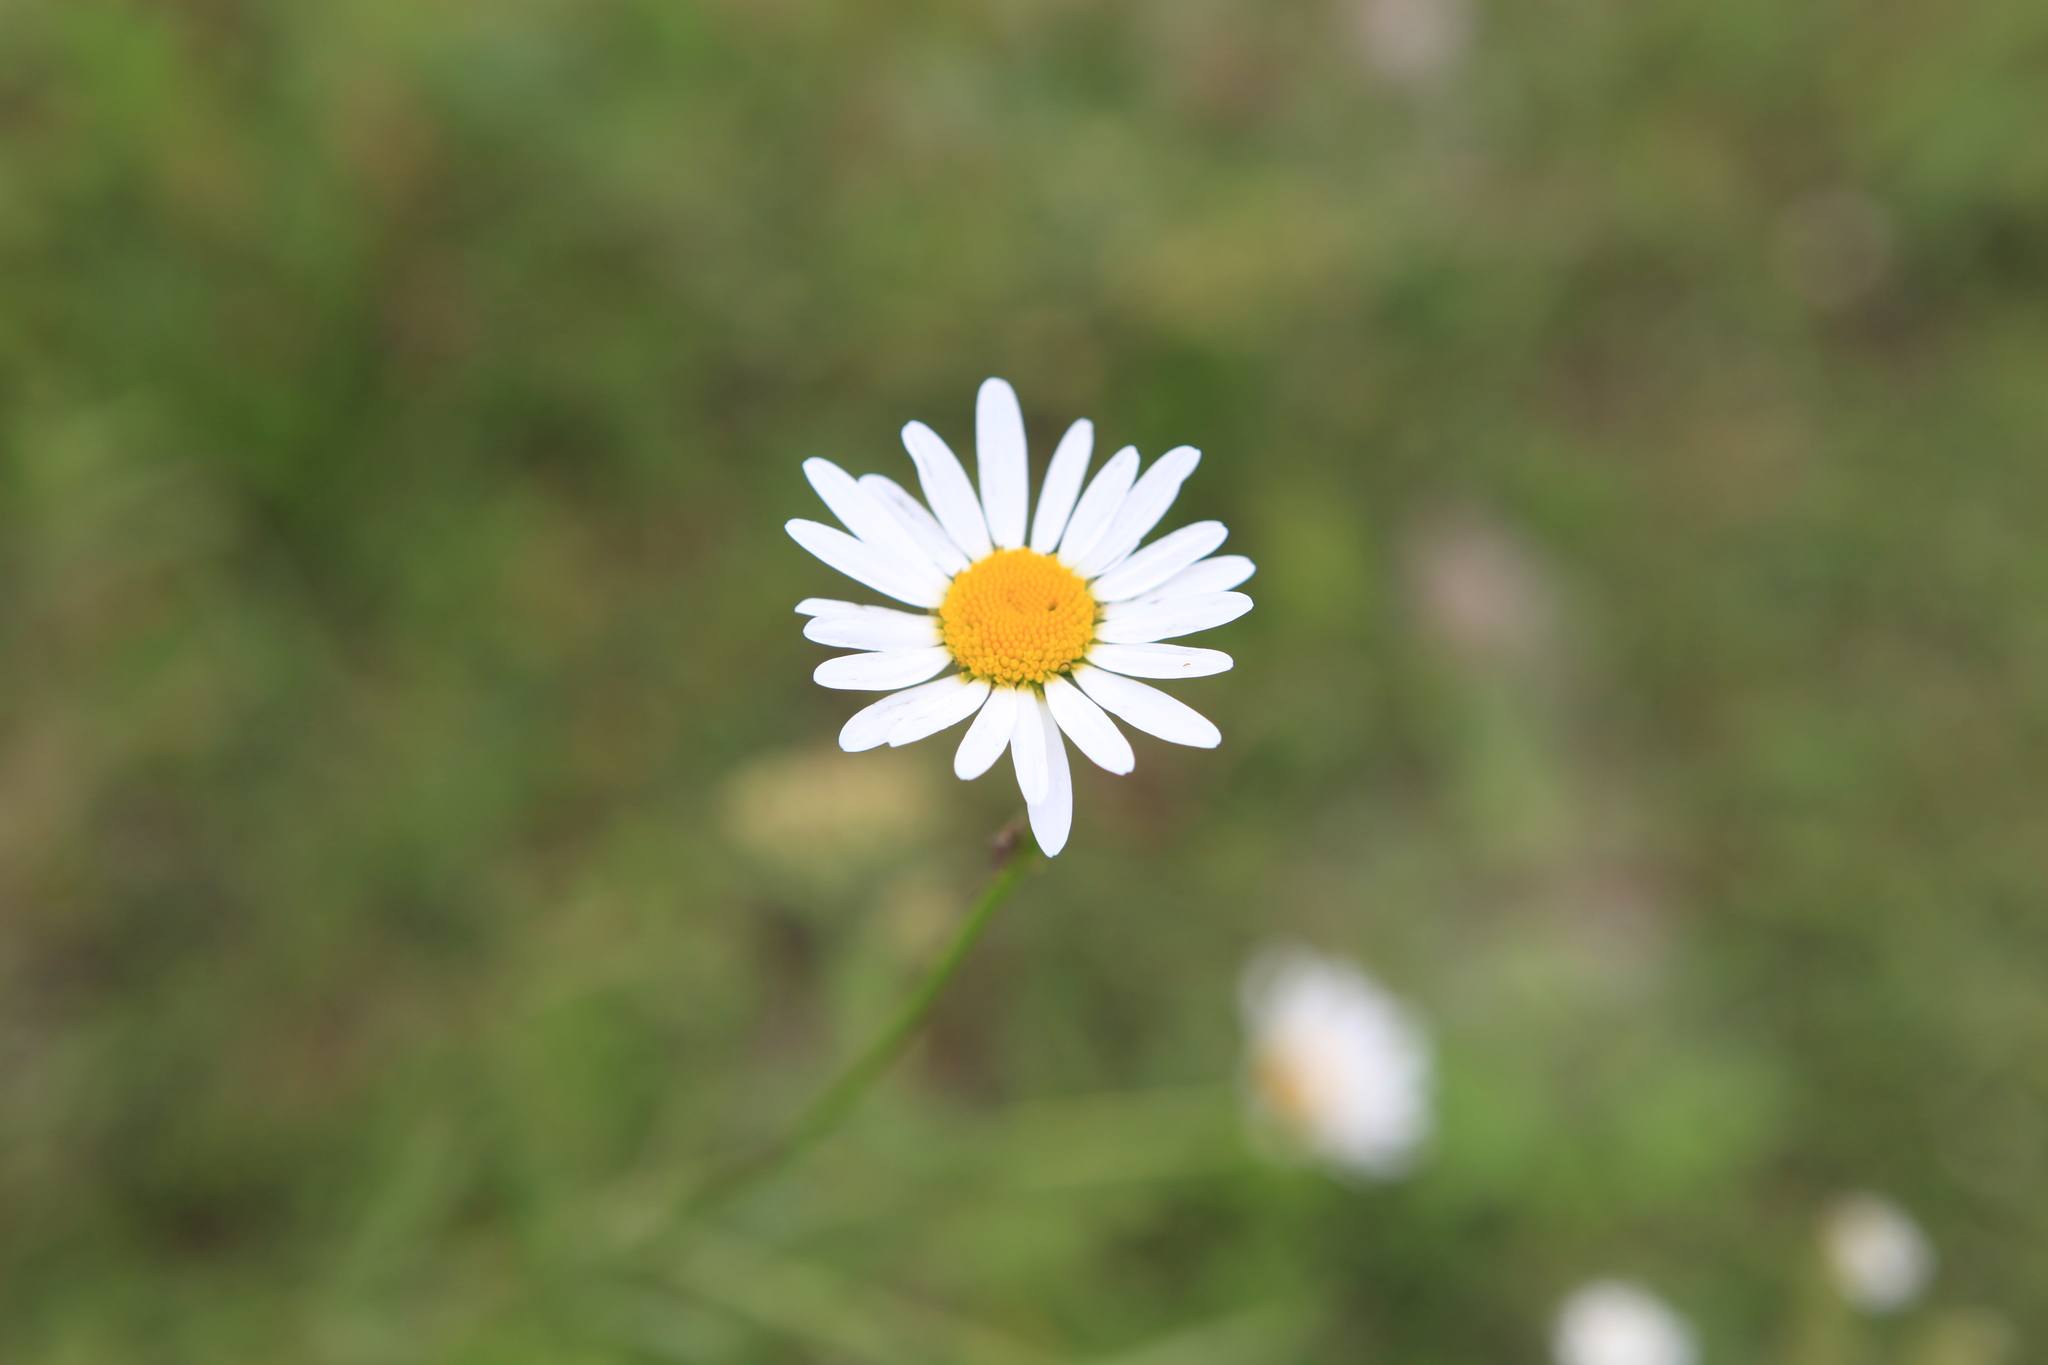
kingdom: Plantae
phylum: Tracheophyta
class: Magnoliopsida
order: Asterales
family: Asteraceae
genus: Leucanthemum
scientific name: Leucanthemum vulgare
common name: Oxeye daisy
